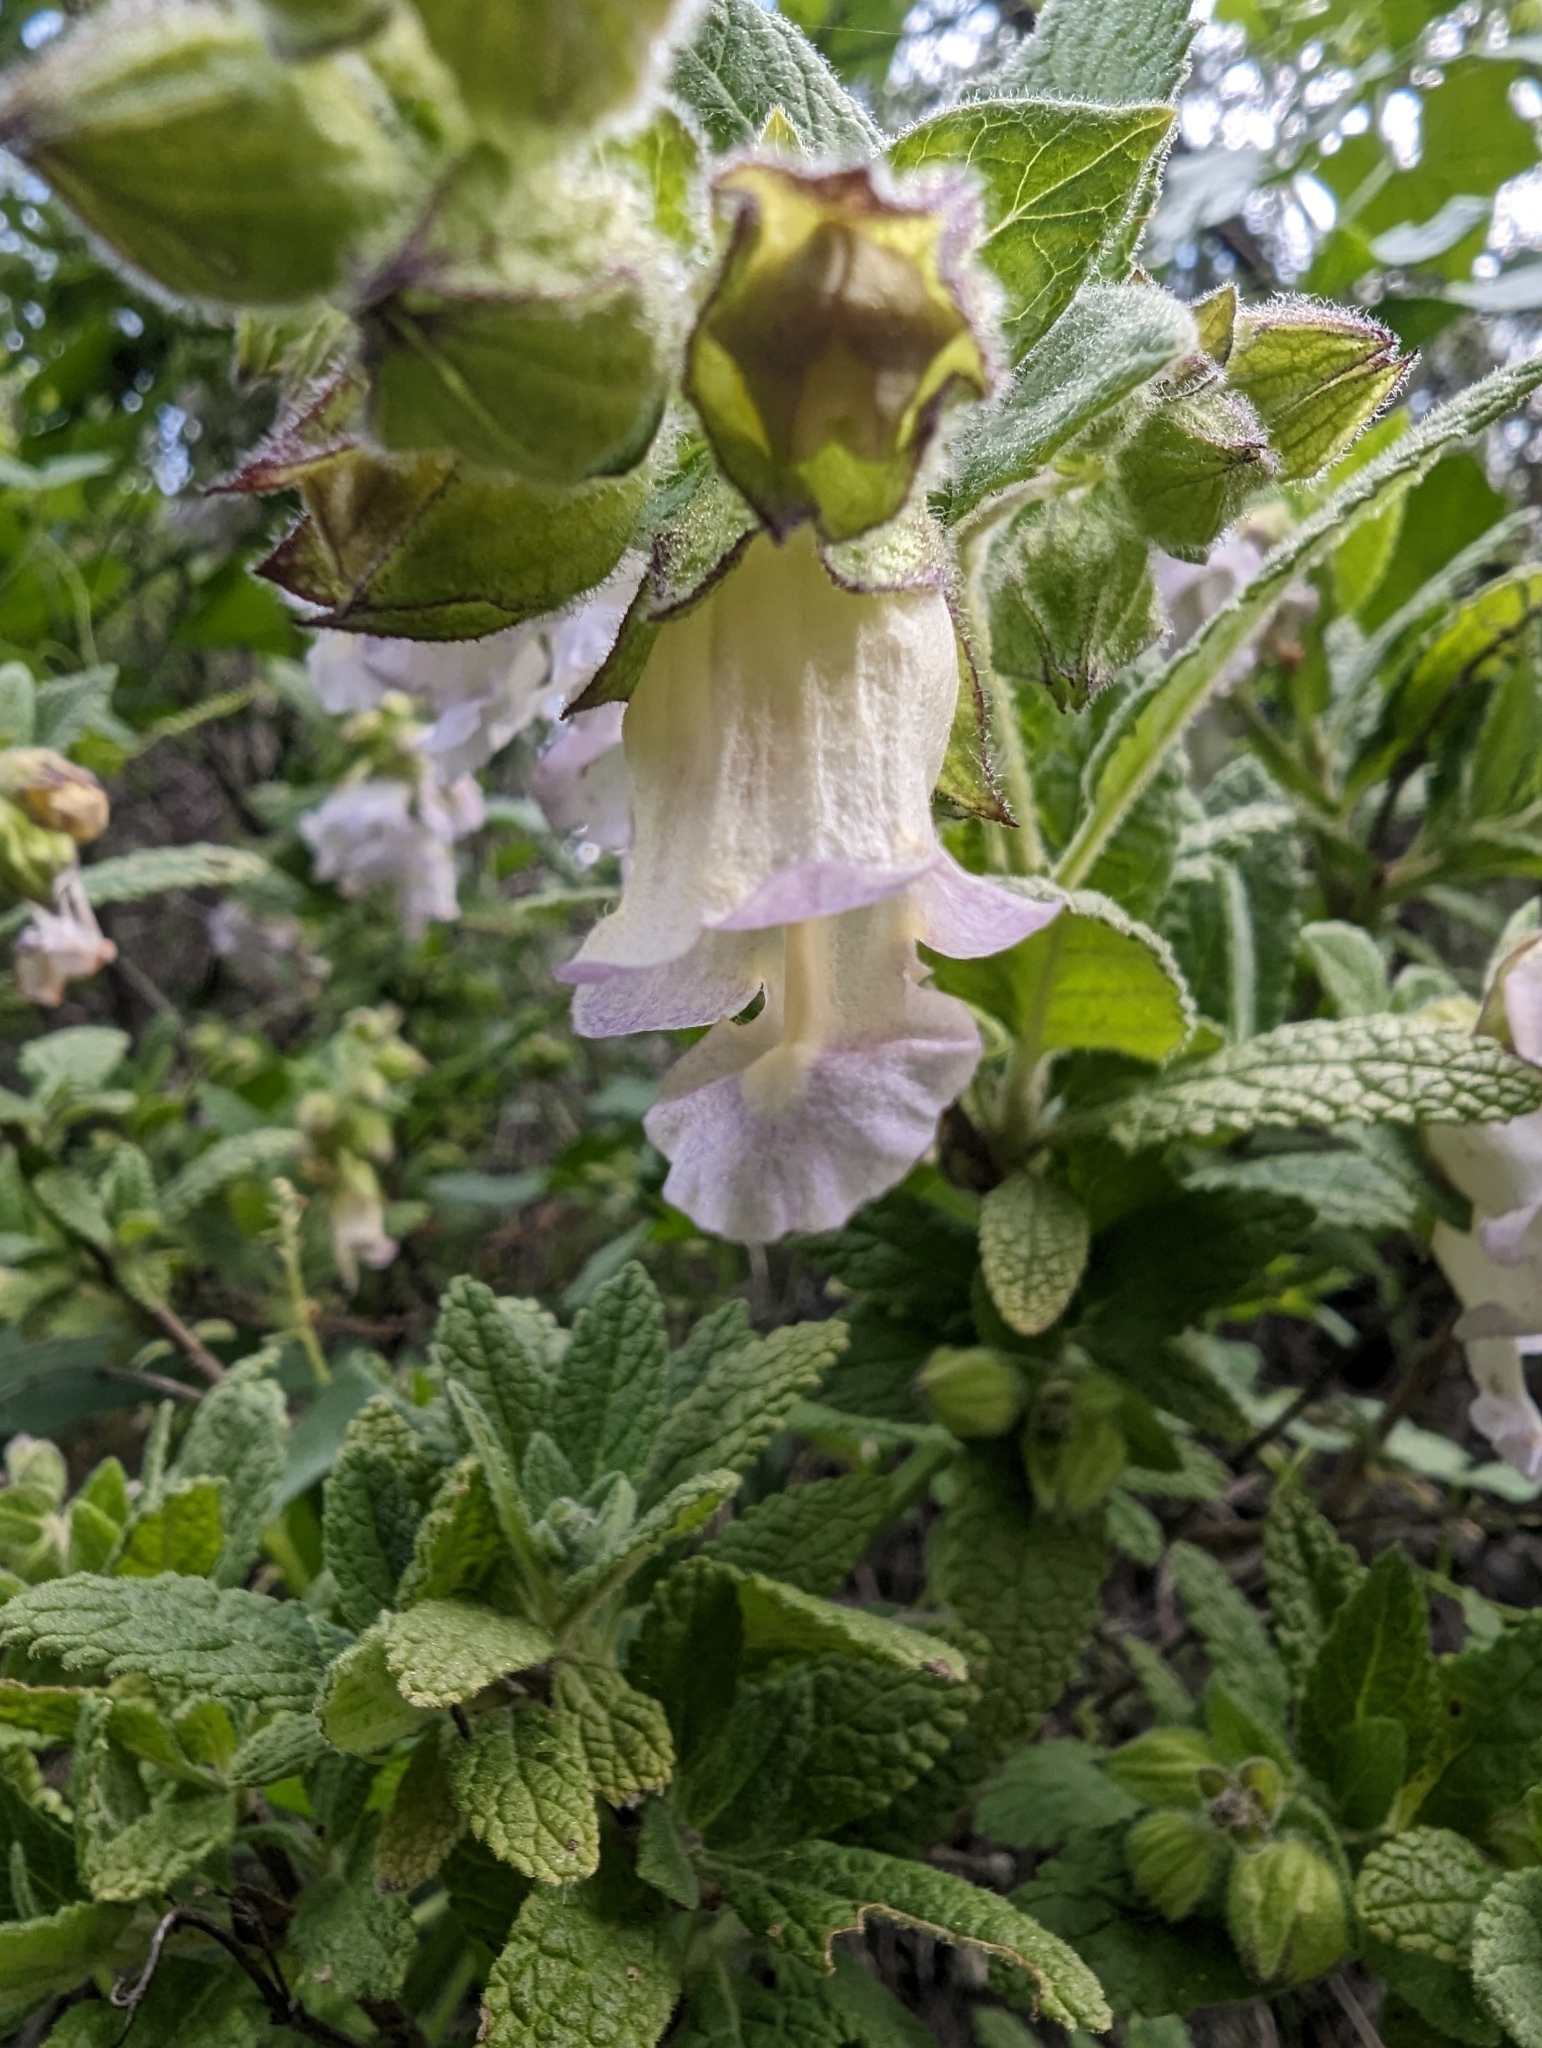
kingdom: Plantae
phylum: Tracheophyta
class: Magnoliopsida
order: Lamiales
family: Lamiaceae
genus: Lepechinia
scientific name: Lepechinia calycina
